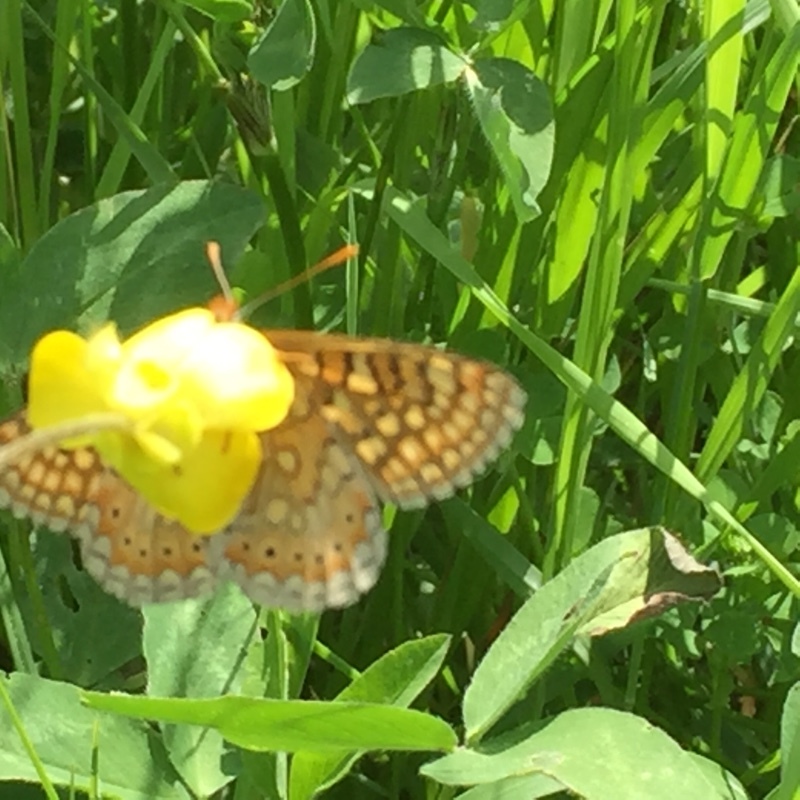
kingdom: Animalia
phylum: Arthropoda
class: Insecta
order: Lepidoptera
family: Nymphalidae
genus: Euphydryas
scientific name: Euphydryas aurinia
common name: Marsh fritillary
